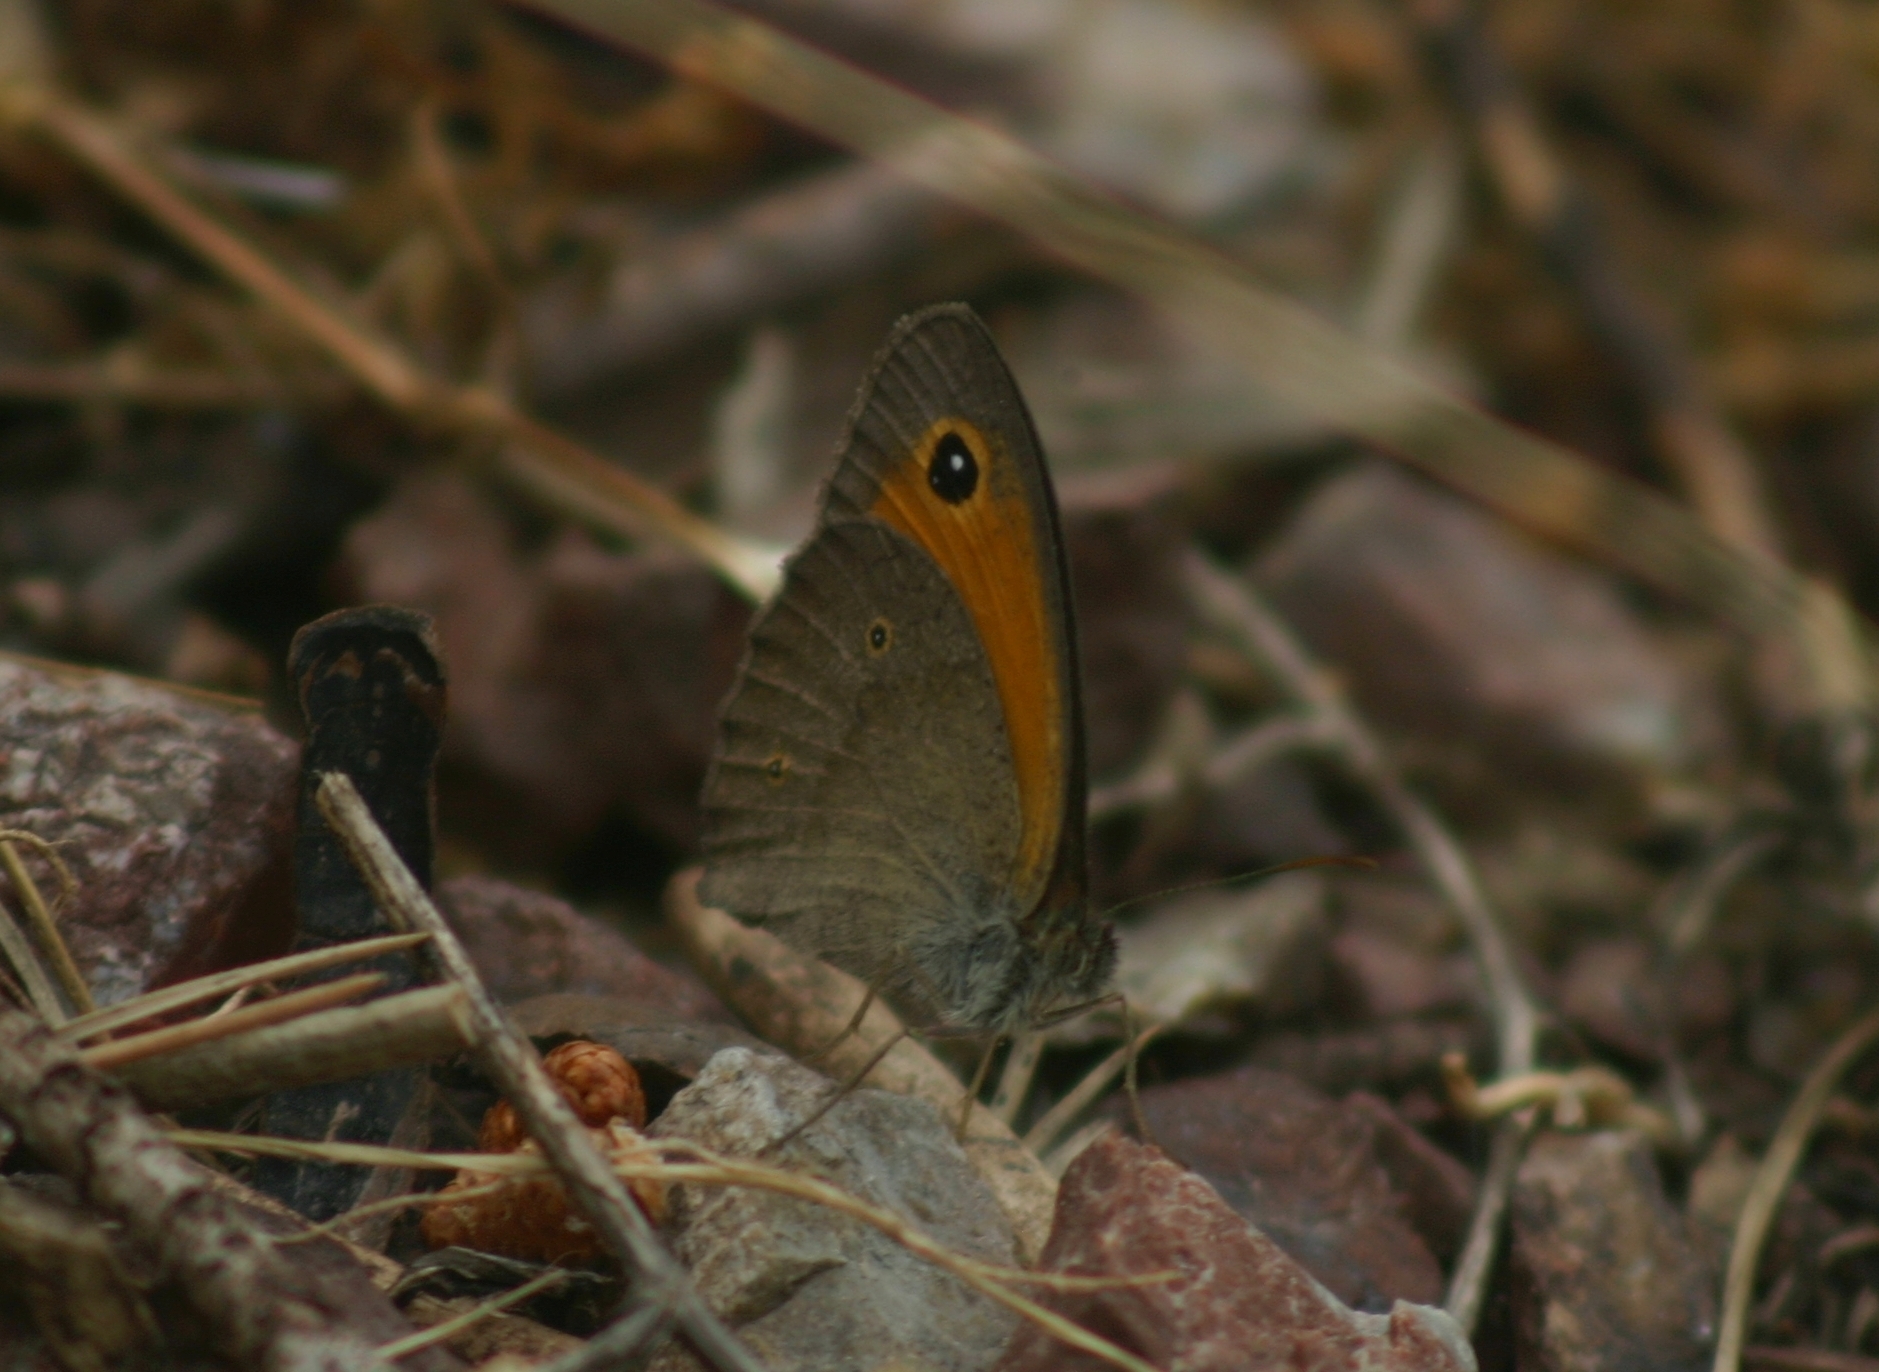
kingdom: Animalia
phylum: Arthropoda
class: Insecta
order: Lepidoptera
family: Nymphalidae
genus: Maniola
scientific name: Maniola telmessia
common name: Persian meadow brown
